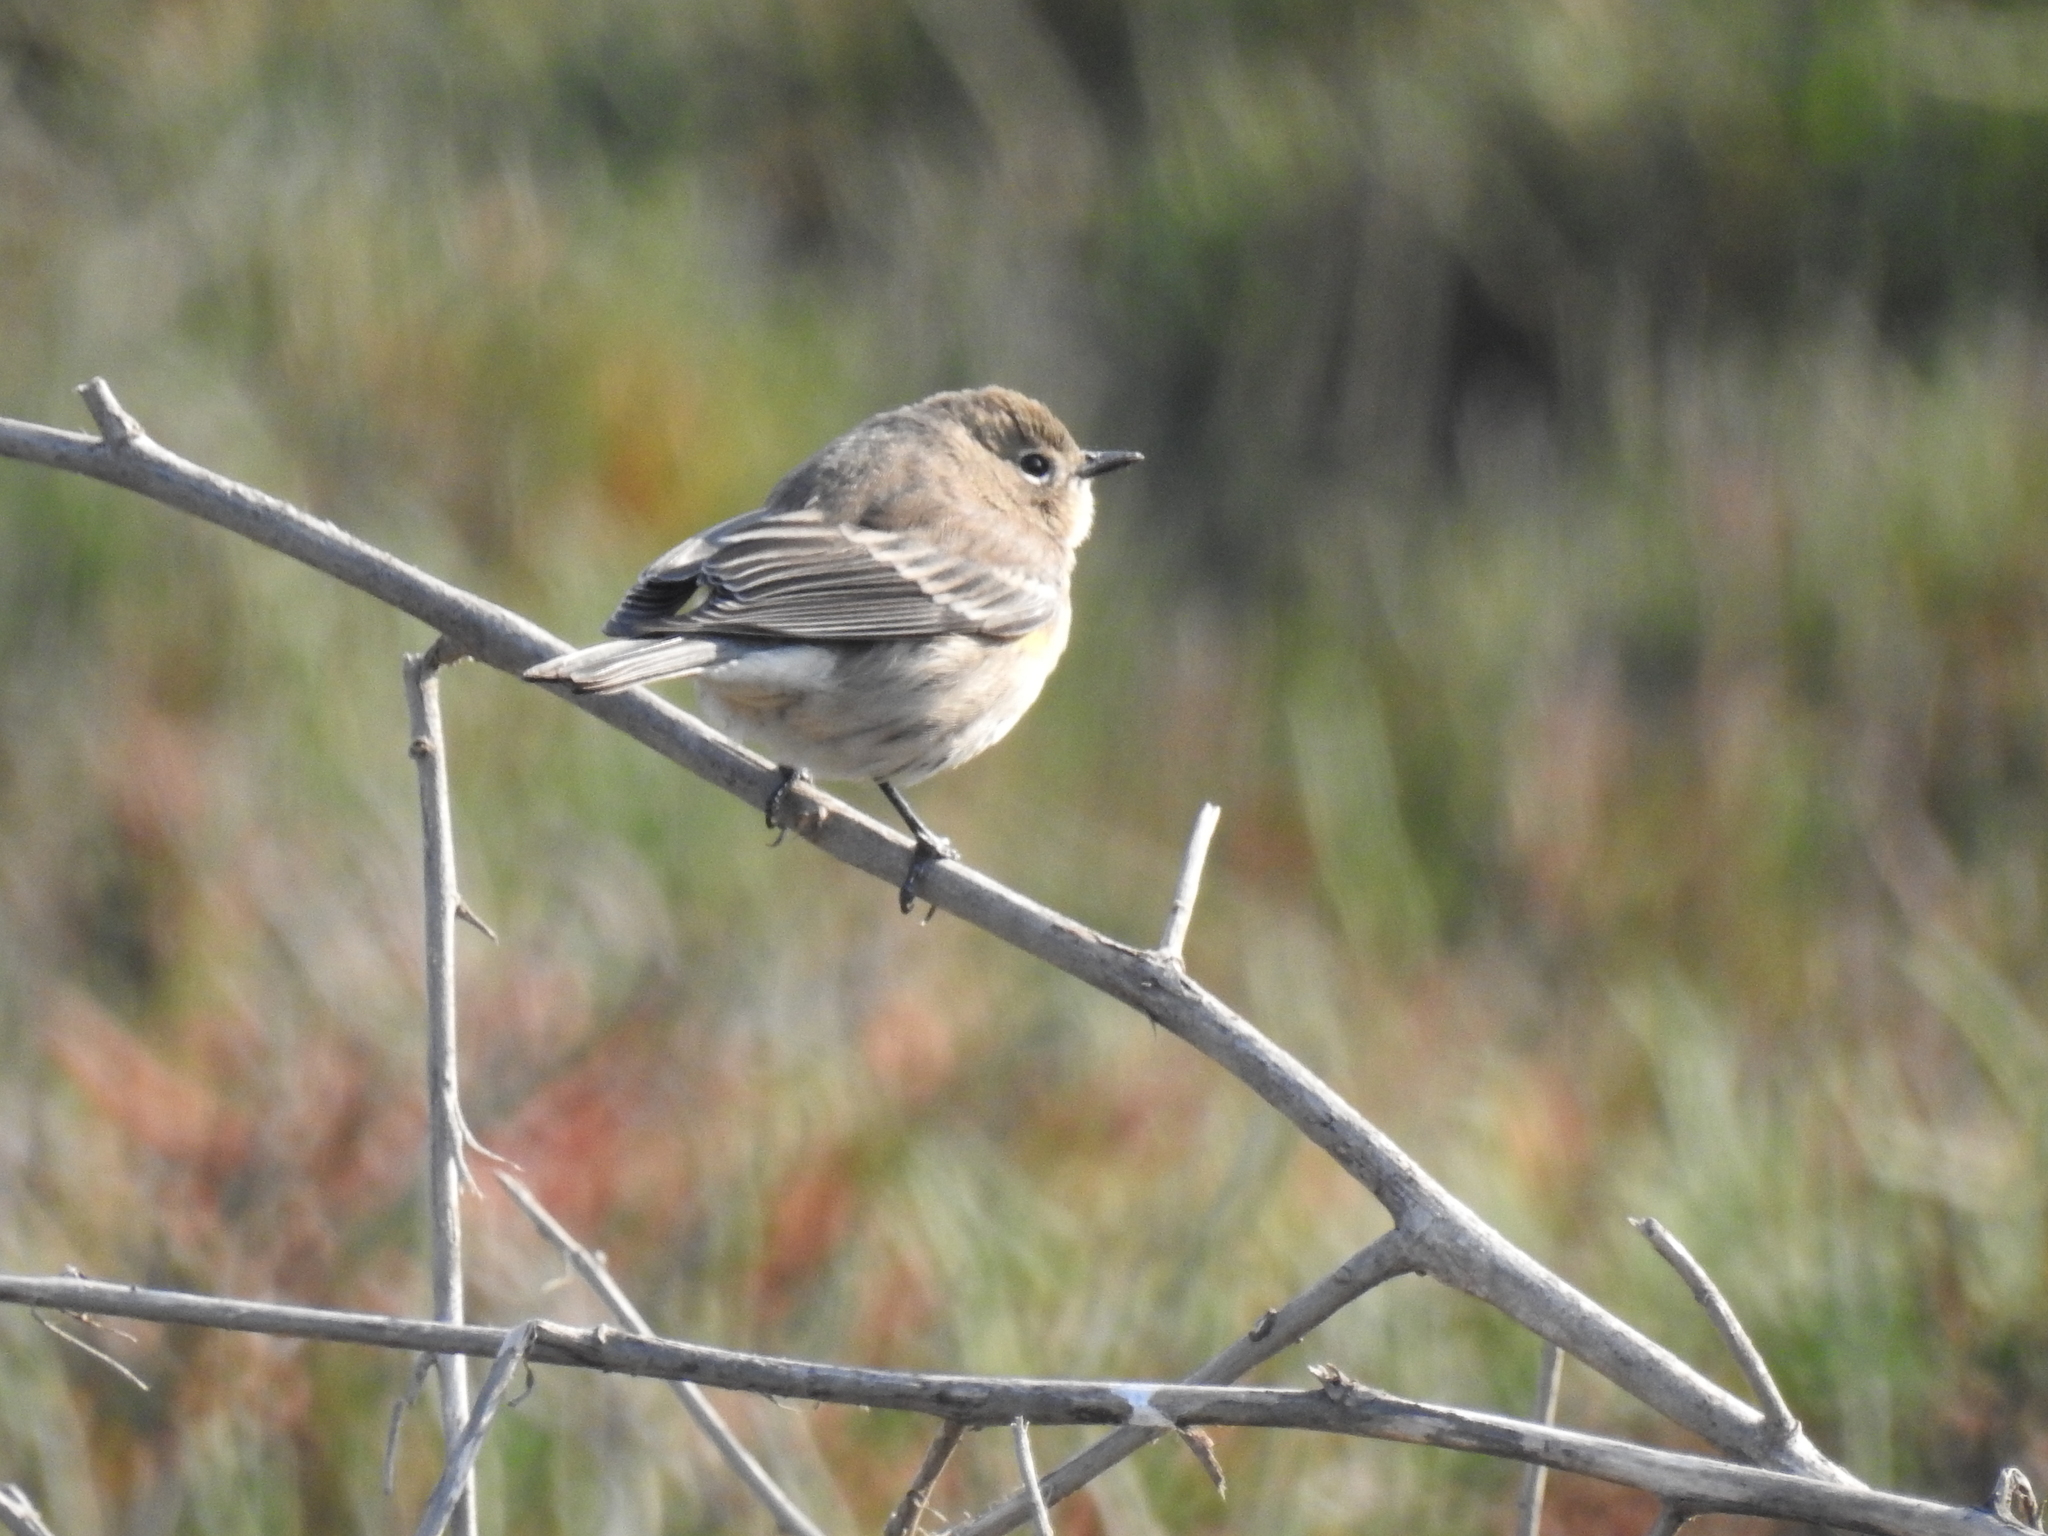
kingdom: Animalia
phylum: Chordata
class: Aves
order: Passeriformes
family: Parulidae
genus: Setophaga
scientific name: Setophaga coronata
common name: Myrtle warbler
